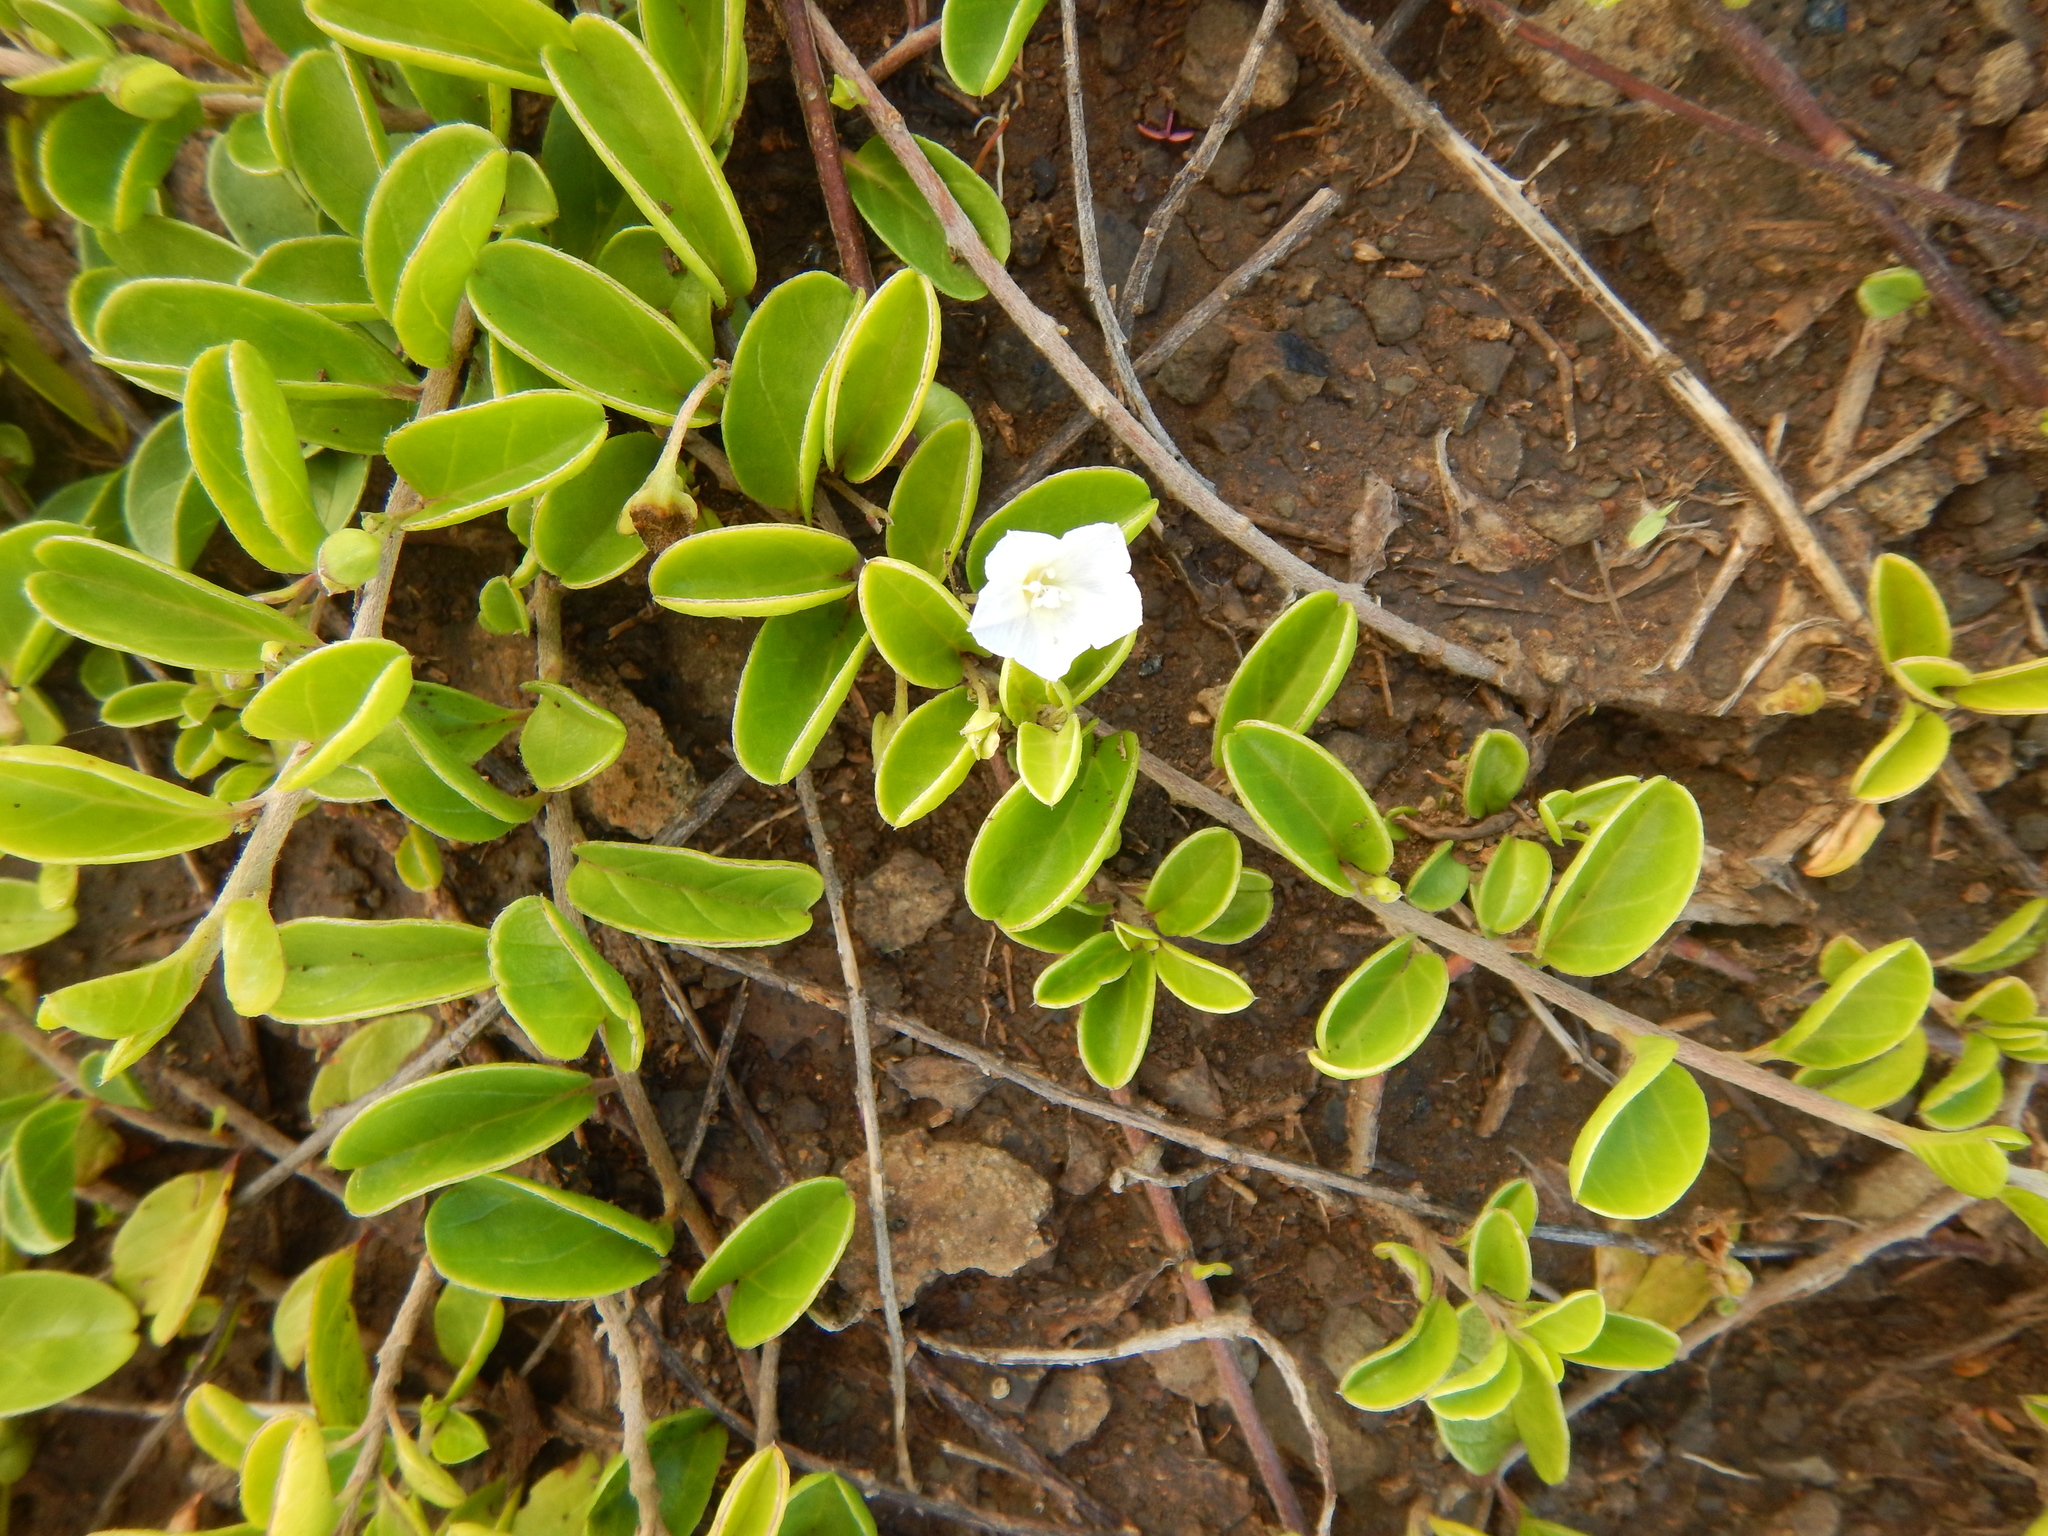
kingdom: Plantae
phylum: Tracheophyta
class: Magnoliopsida
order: Solanales
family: Convolvulaceae
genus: Jacquemontia
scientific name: Jacquemontia sandwicensis
